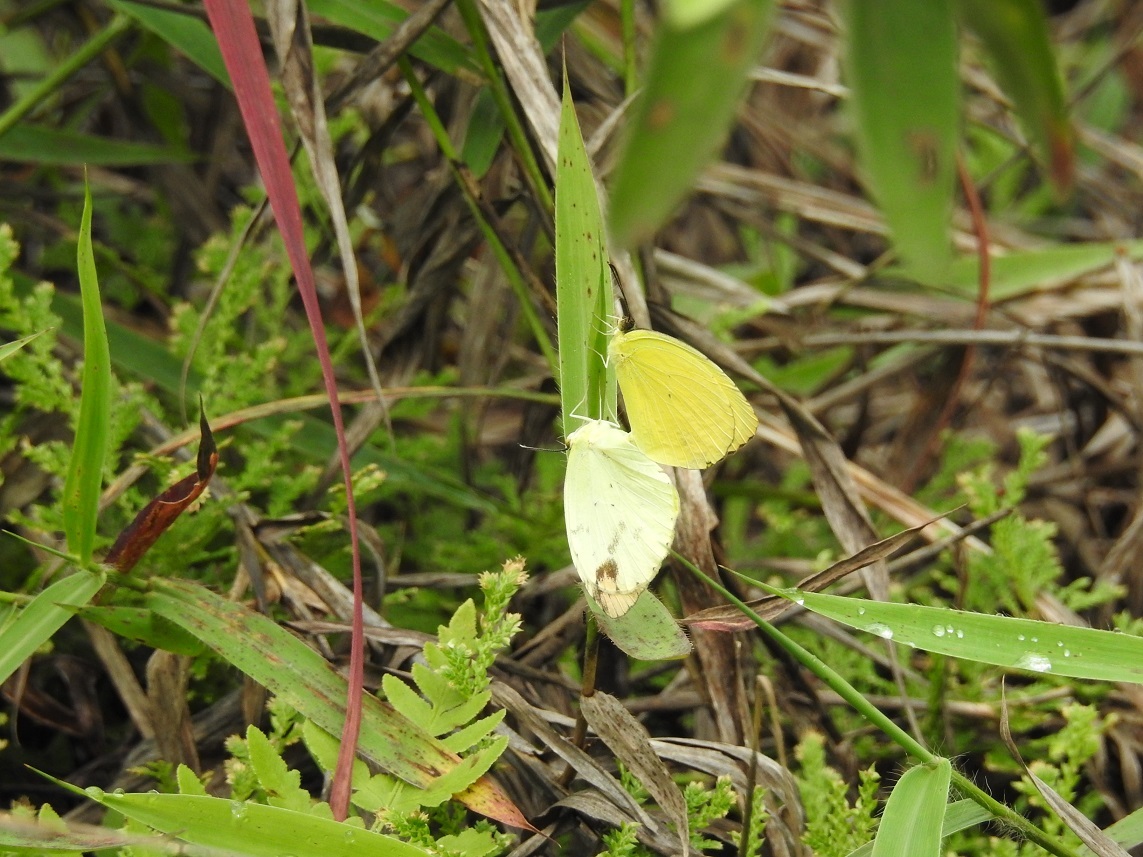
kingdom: Animalia
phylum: Arthropoda
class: Insecta
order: Lepidoptera
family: Pieridae
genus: Pyrisitia
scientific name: Pyrisitia dina
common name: Dina yellow
